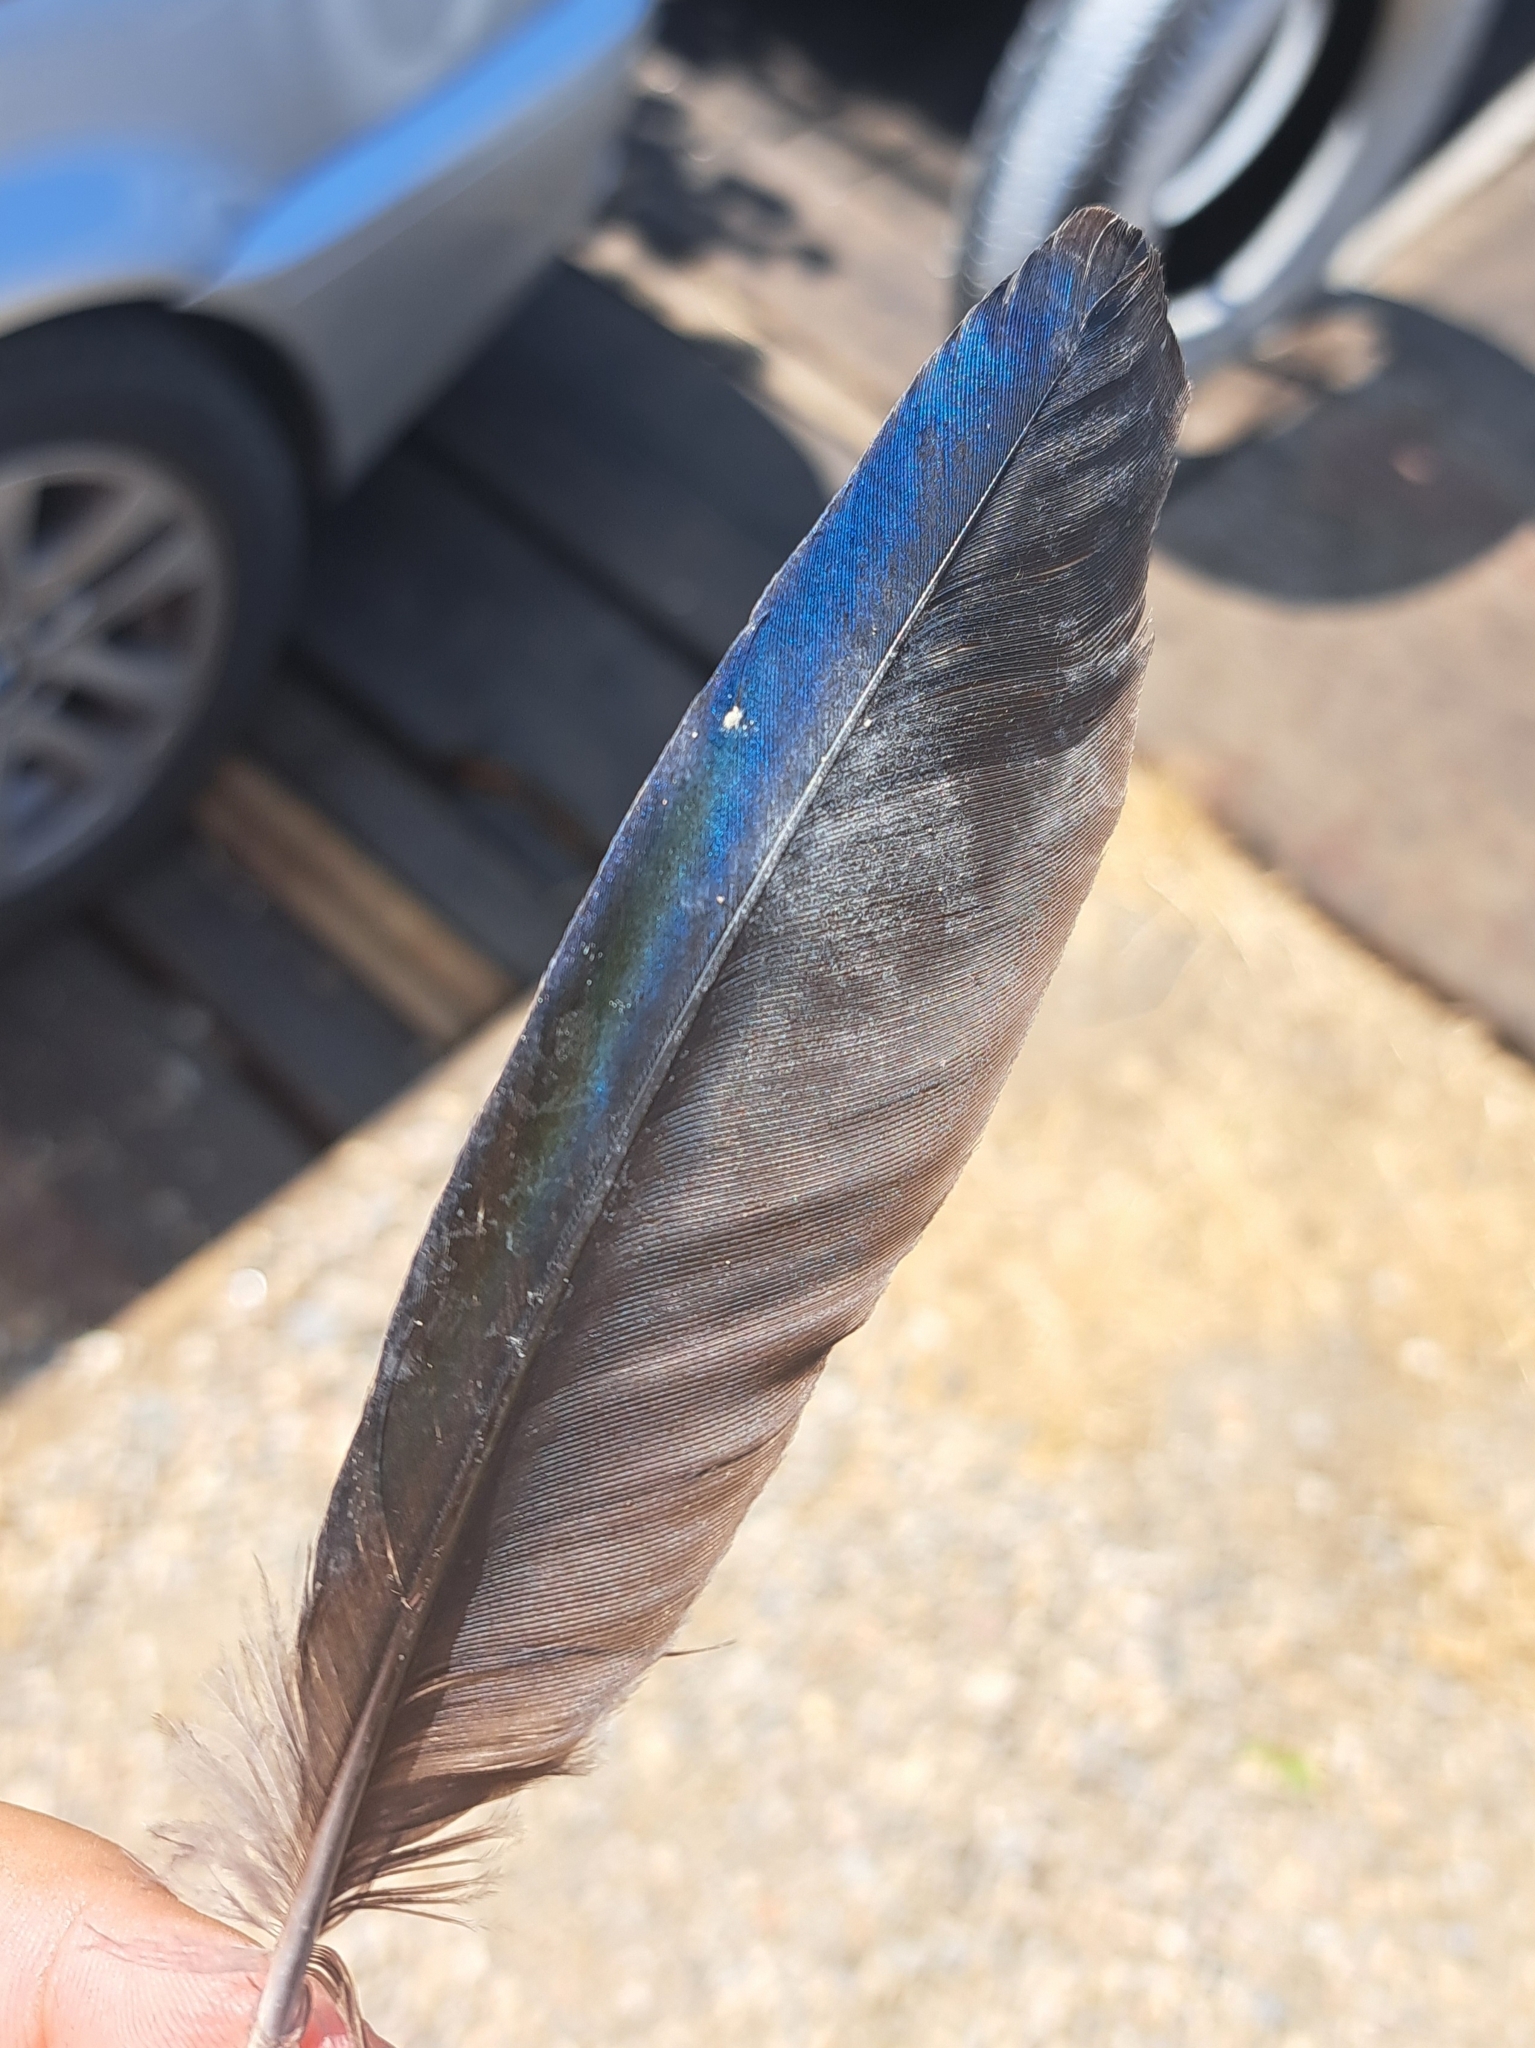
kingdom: Animalia
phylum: Chordata
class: Aves
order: Passeriformes
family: Corvidae
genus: Pica
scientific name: Pica pica
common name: Eurasian magpie
